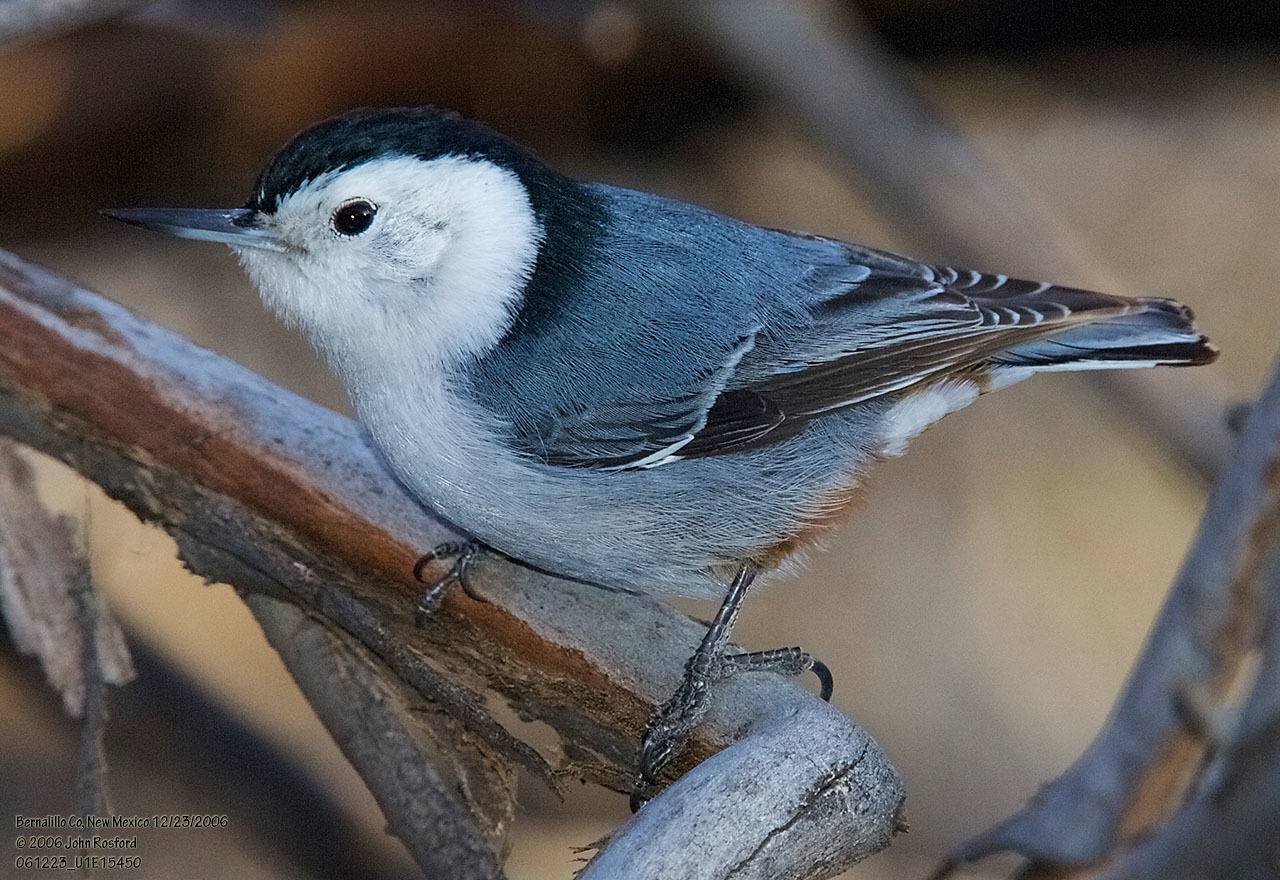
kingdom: Animalia
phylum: Chordata
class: Aves
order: Passeriformes
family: Sittidae
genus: Sitta
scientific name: Sitta carolinensis
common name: White-breasted nuthatch
